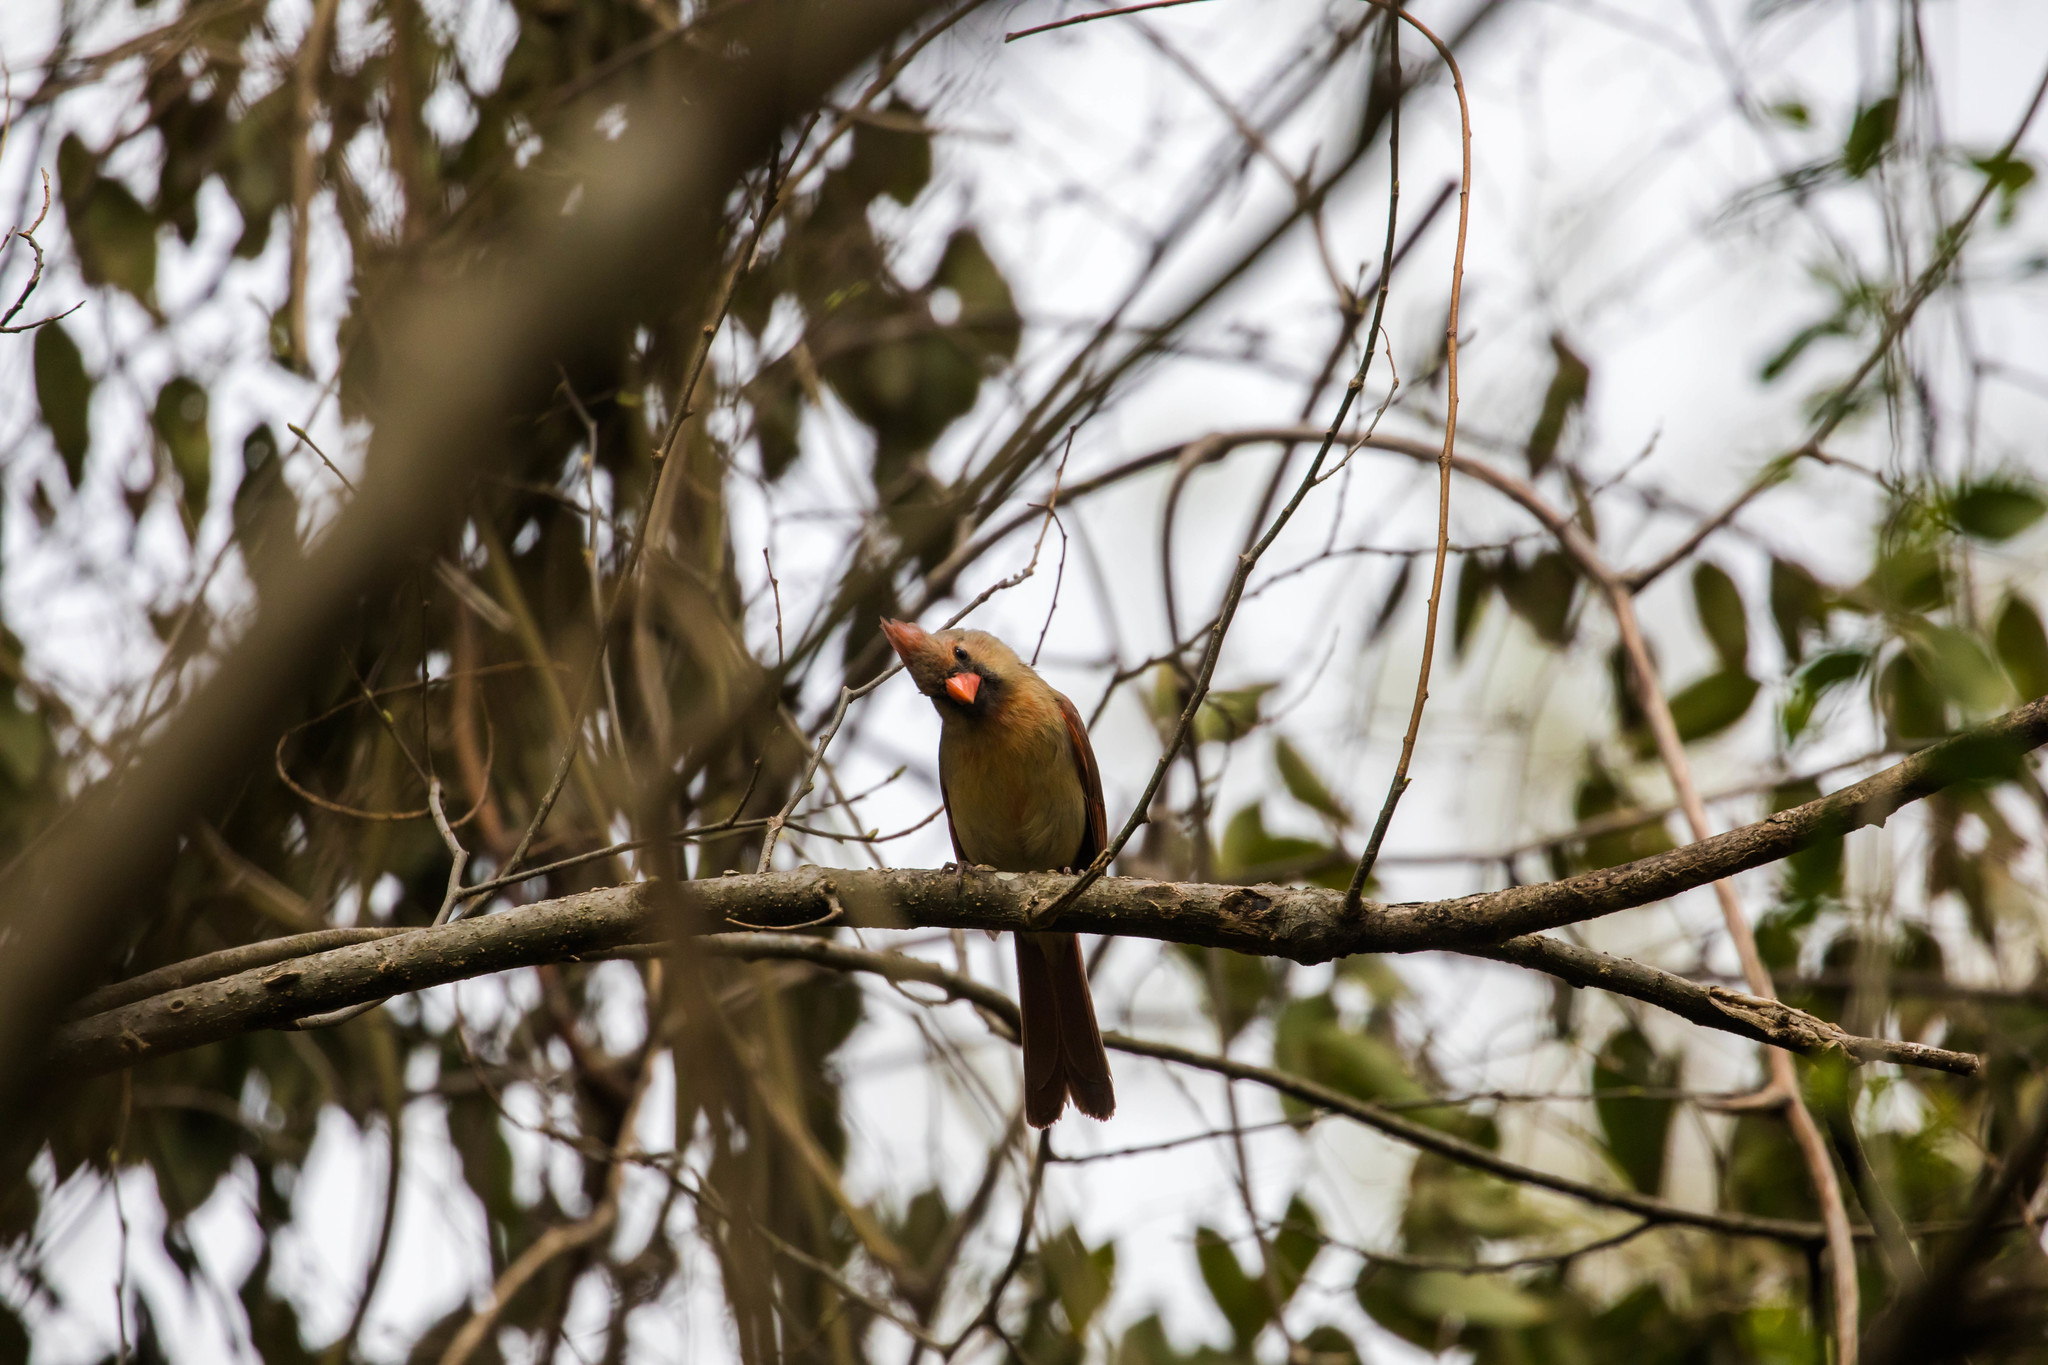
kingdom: Animalia
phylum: Chordata
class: Aves
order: Passeriformes
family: Cardinalidae
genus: Cardinalis
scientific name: Cardinalis cardinalis
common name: Northern cardinal
